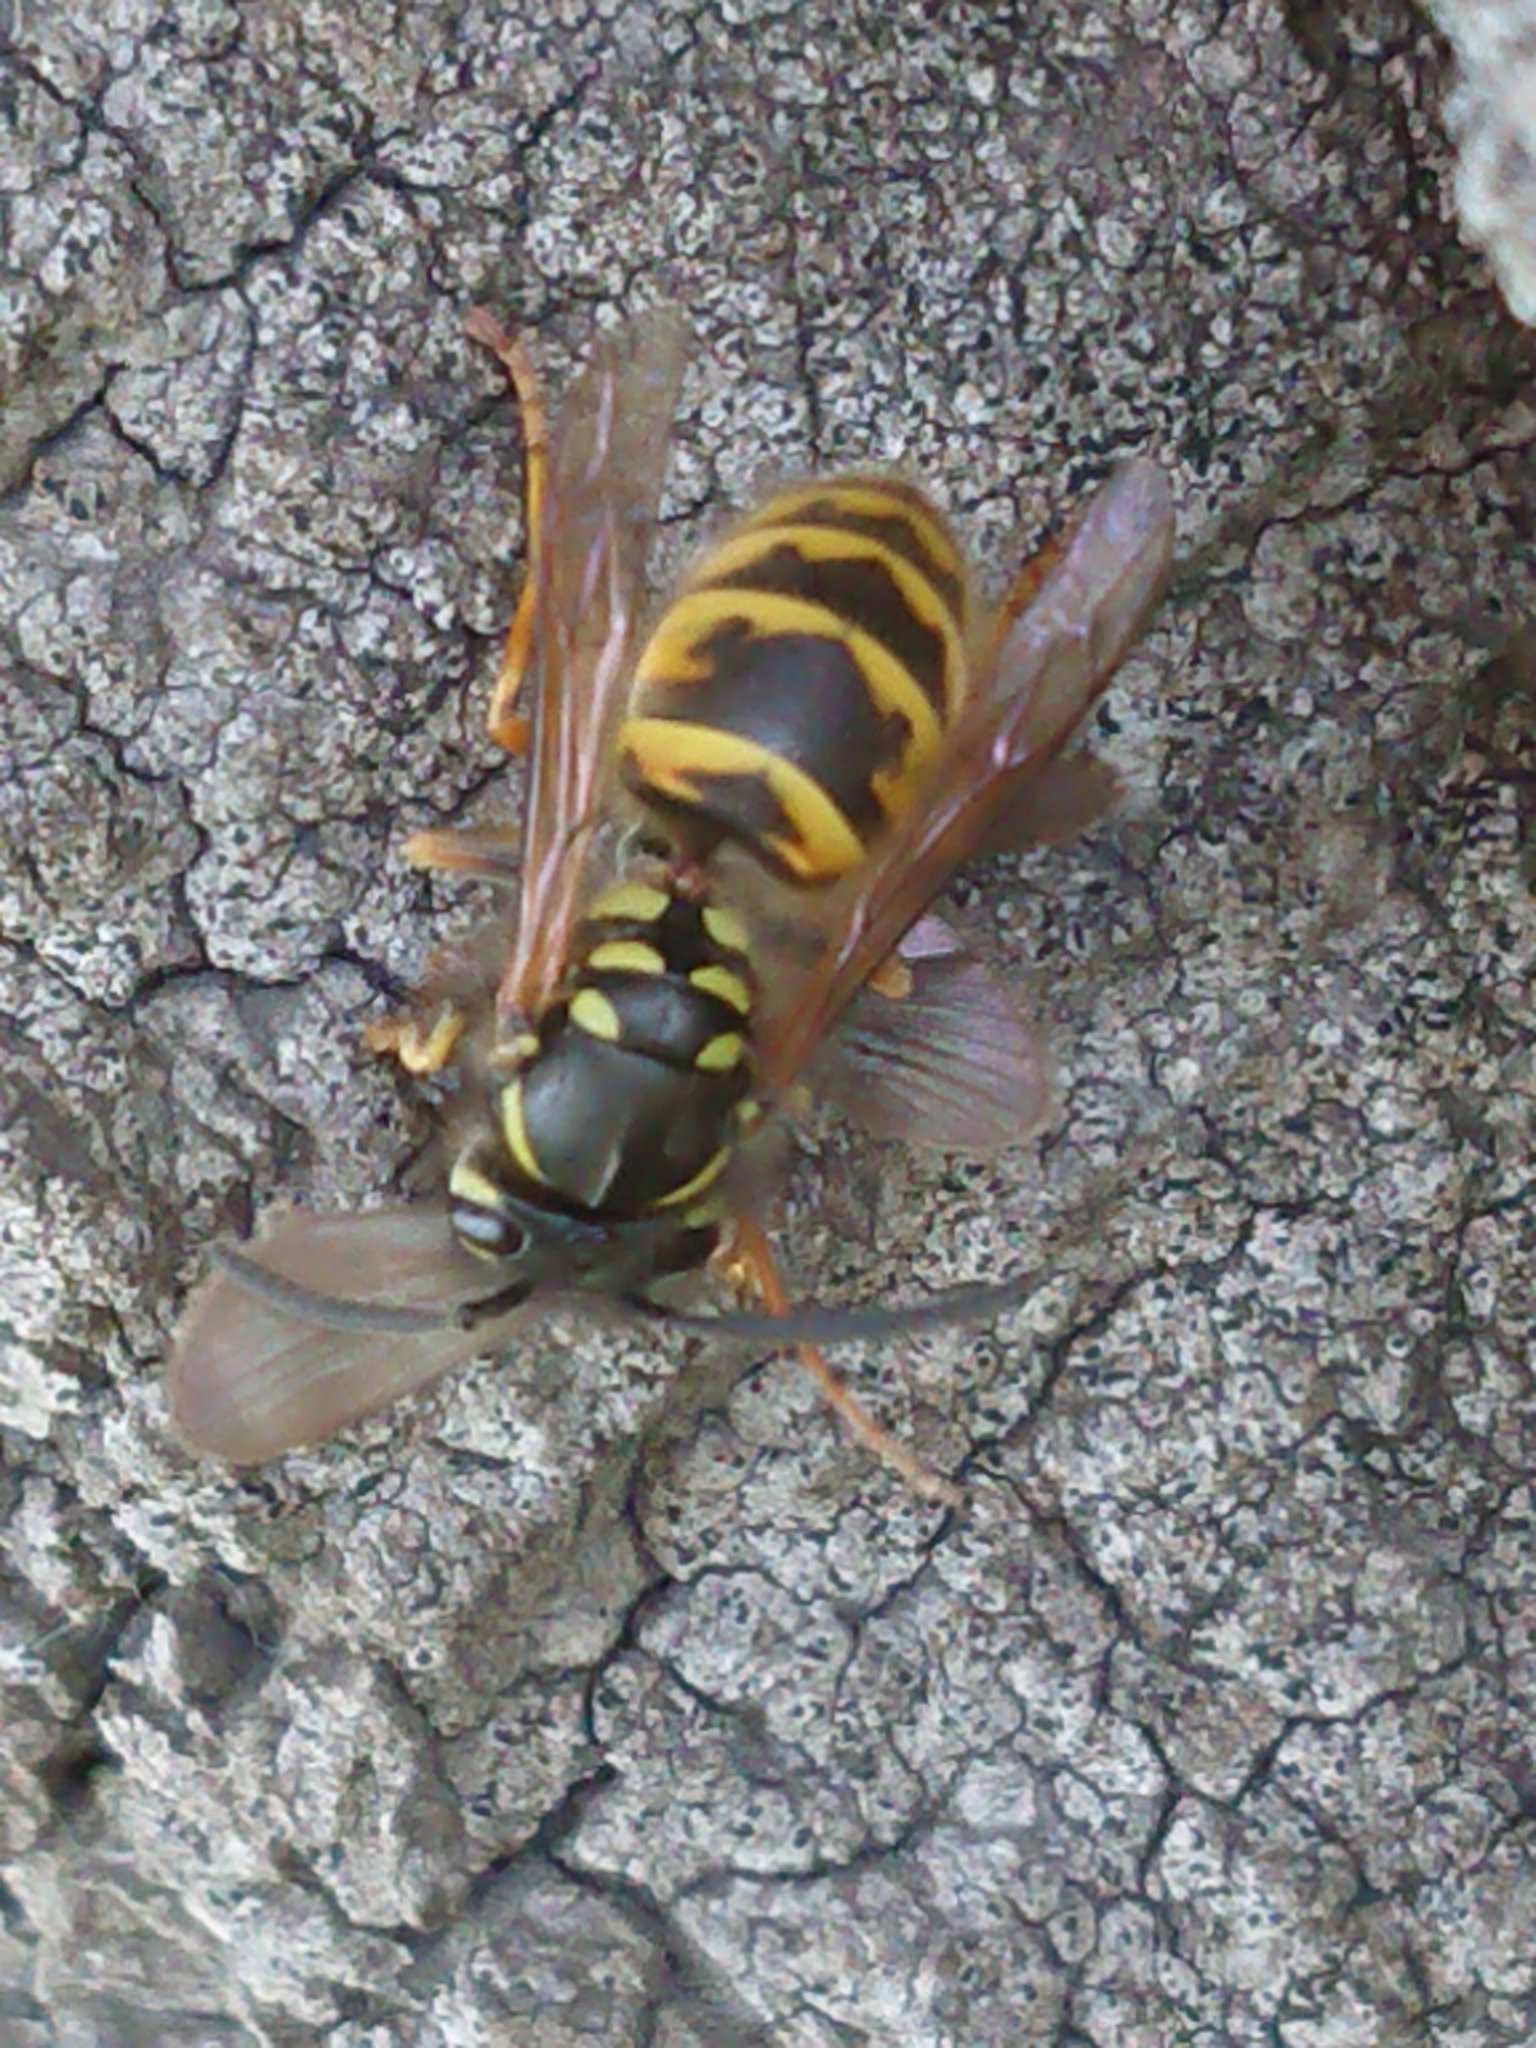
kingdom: Animalia
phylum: Arthropoda
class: Insecta
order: Hymenoptera
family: Vespidae
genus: Vespula
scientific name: Vespula vulgaris
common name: Common wasp
